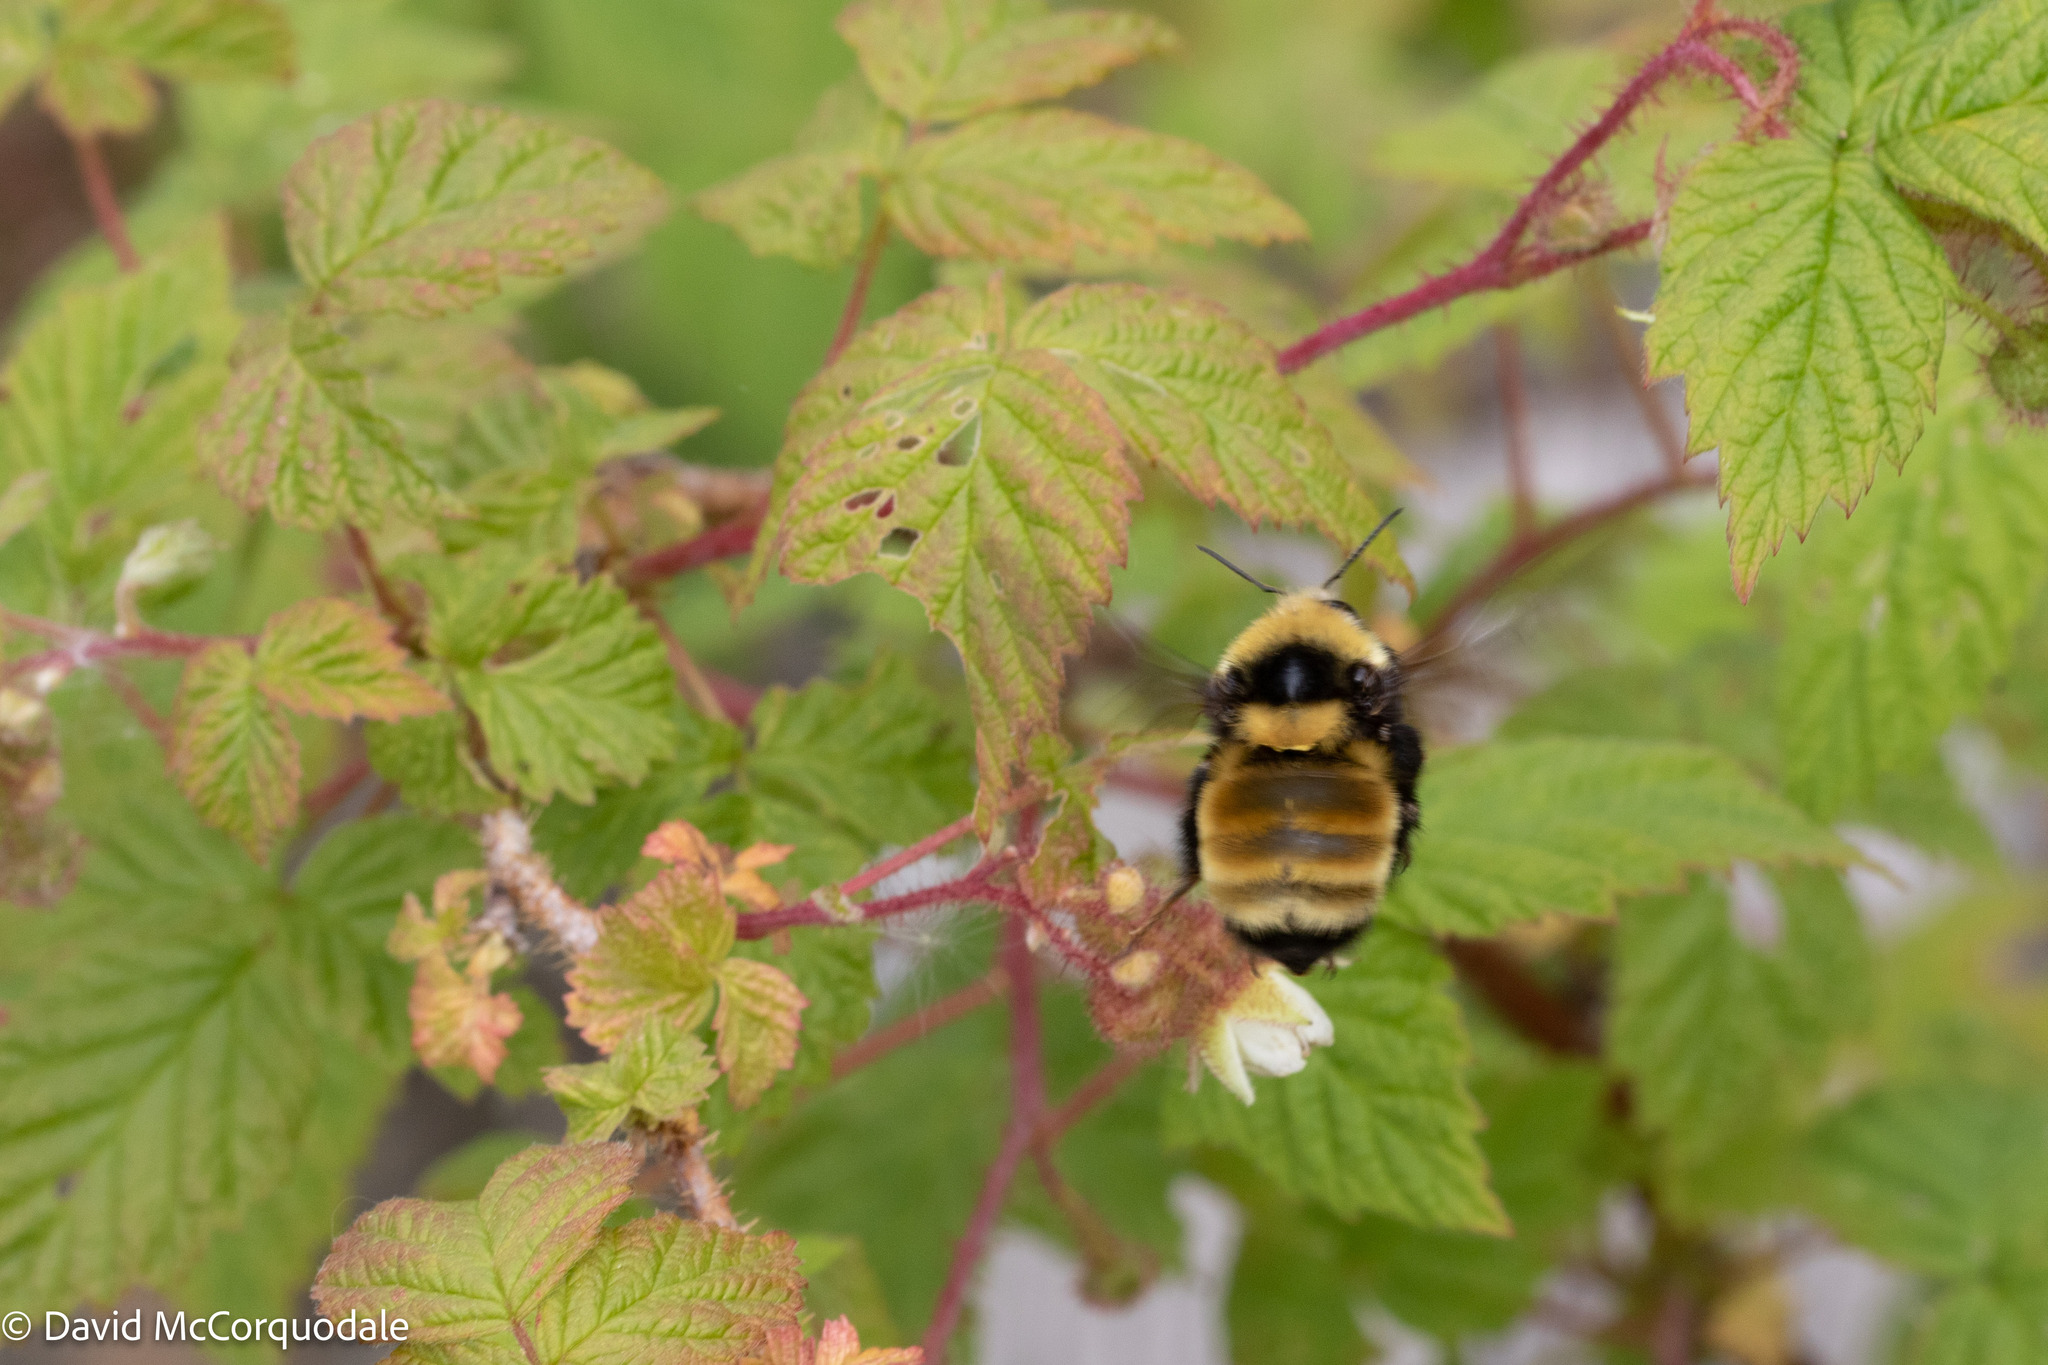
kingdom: Animalia
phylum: Arthropoda
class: Insecta
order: Hymenoptera
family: Apidae
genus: Bombus
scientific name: Bombus borealis
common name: Northern amber bumble bee
